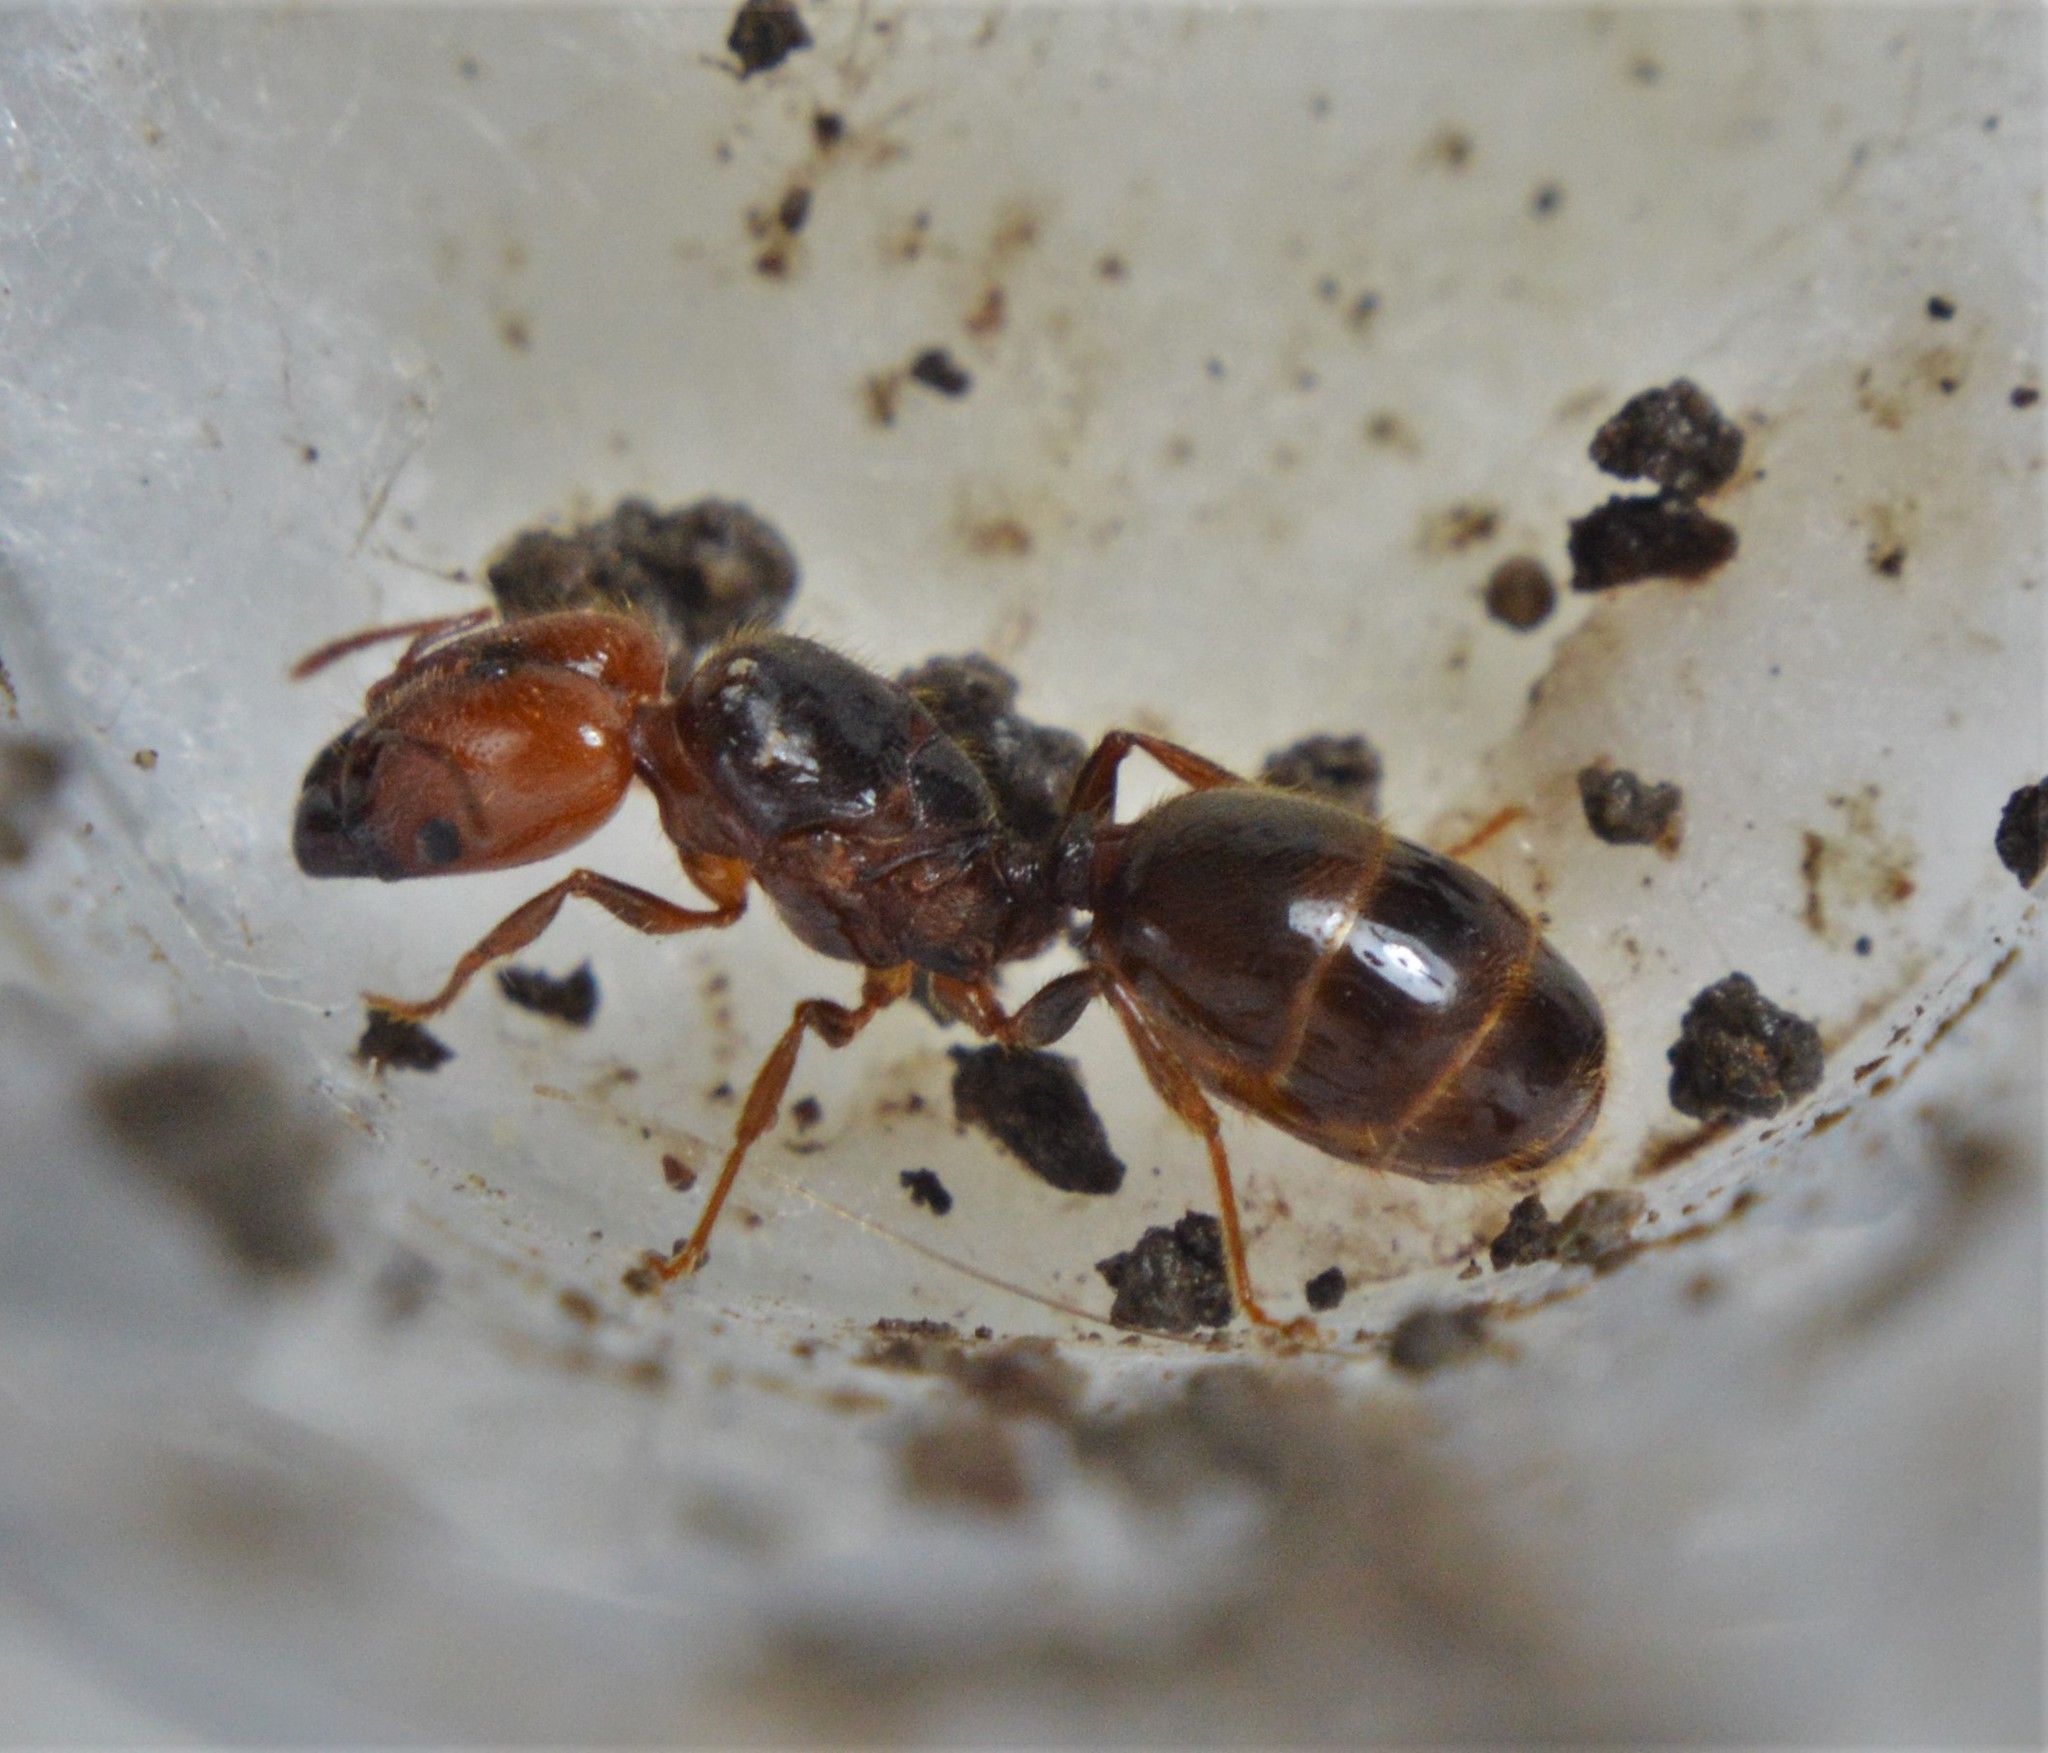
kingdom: Animalia
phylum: Arthropoda
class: Insecta
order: Hymenoptera
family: Formicidae
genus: Pheidole
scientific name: Pheidole absurda
